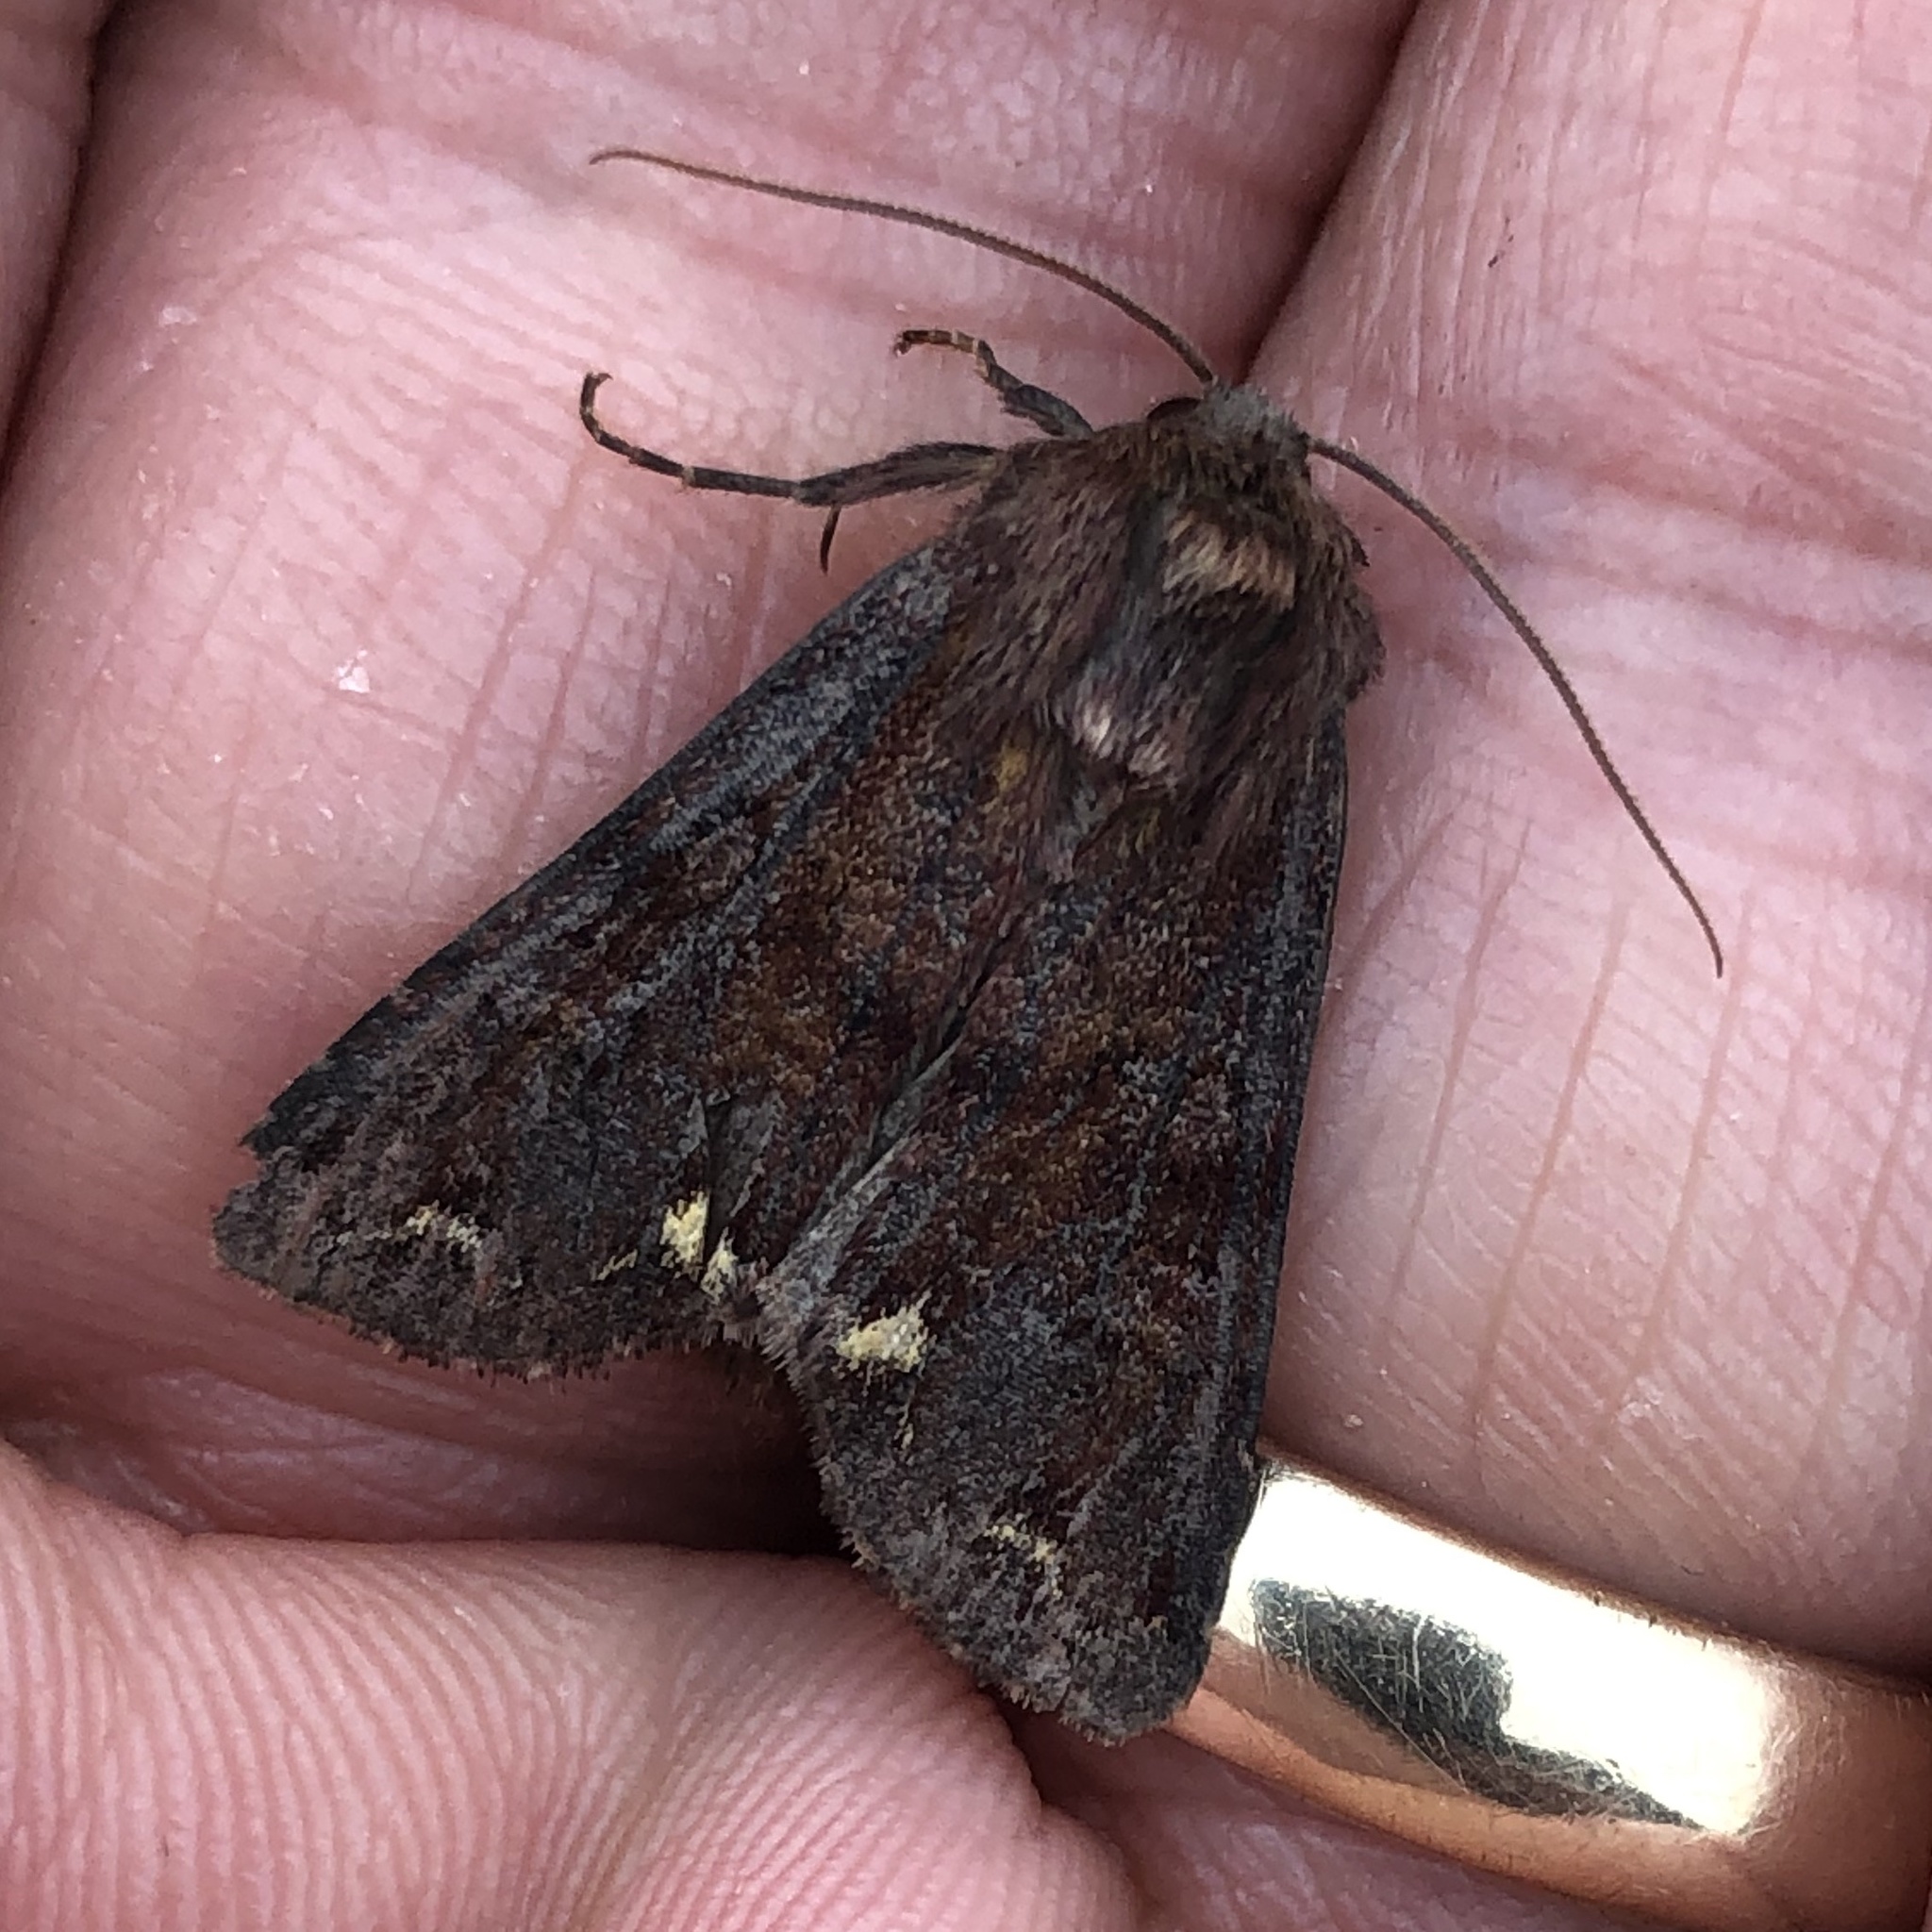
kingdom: Animalia
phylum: Arthropoda
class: Insecta
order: Lepidoptera
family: Noctuidae
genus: Ceramica
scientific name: Ceramica pisi
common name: Broom moth
